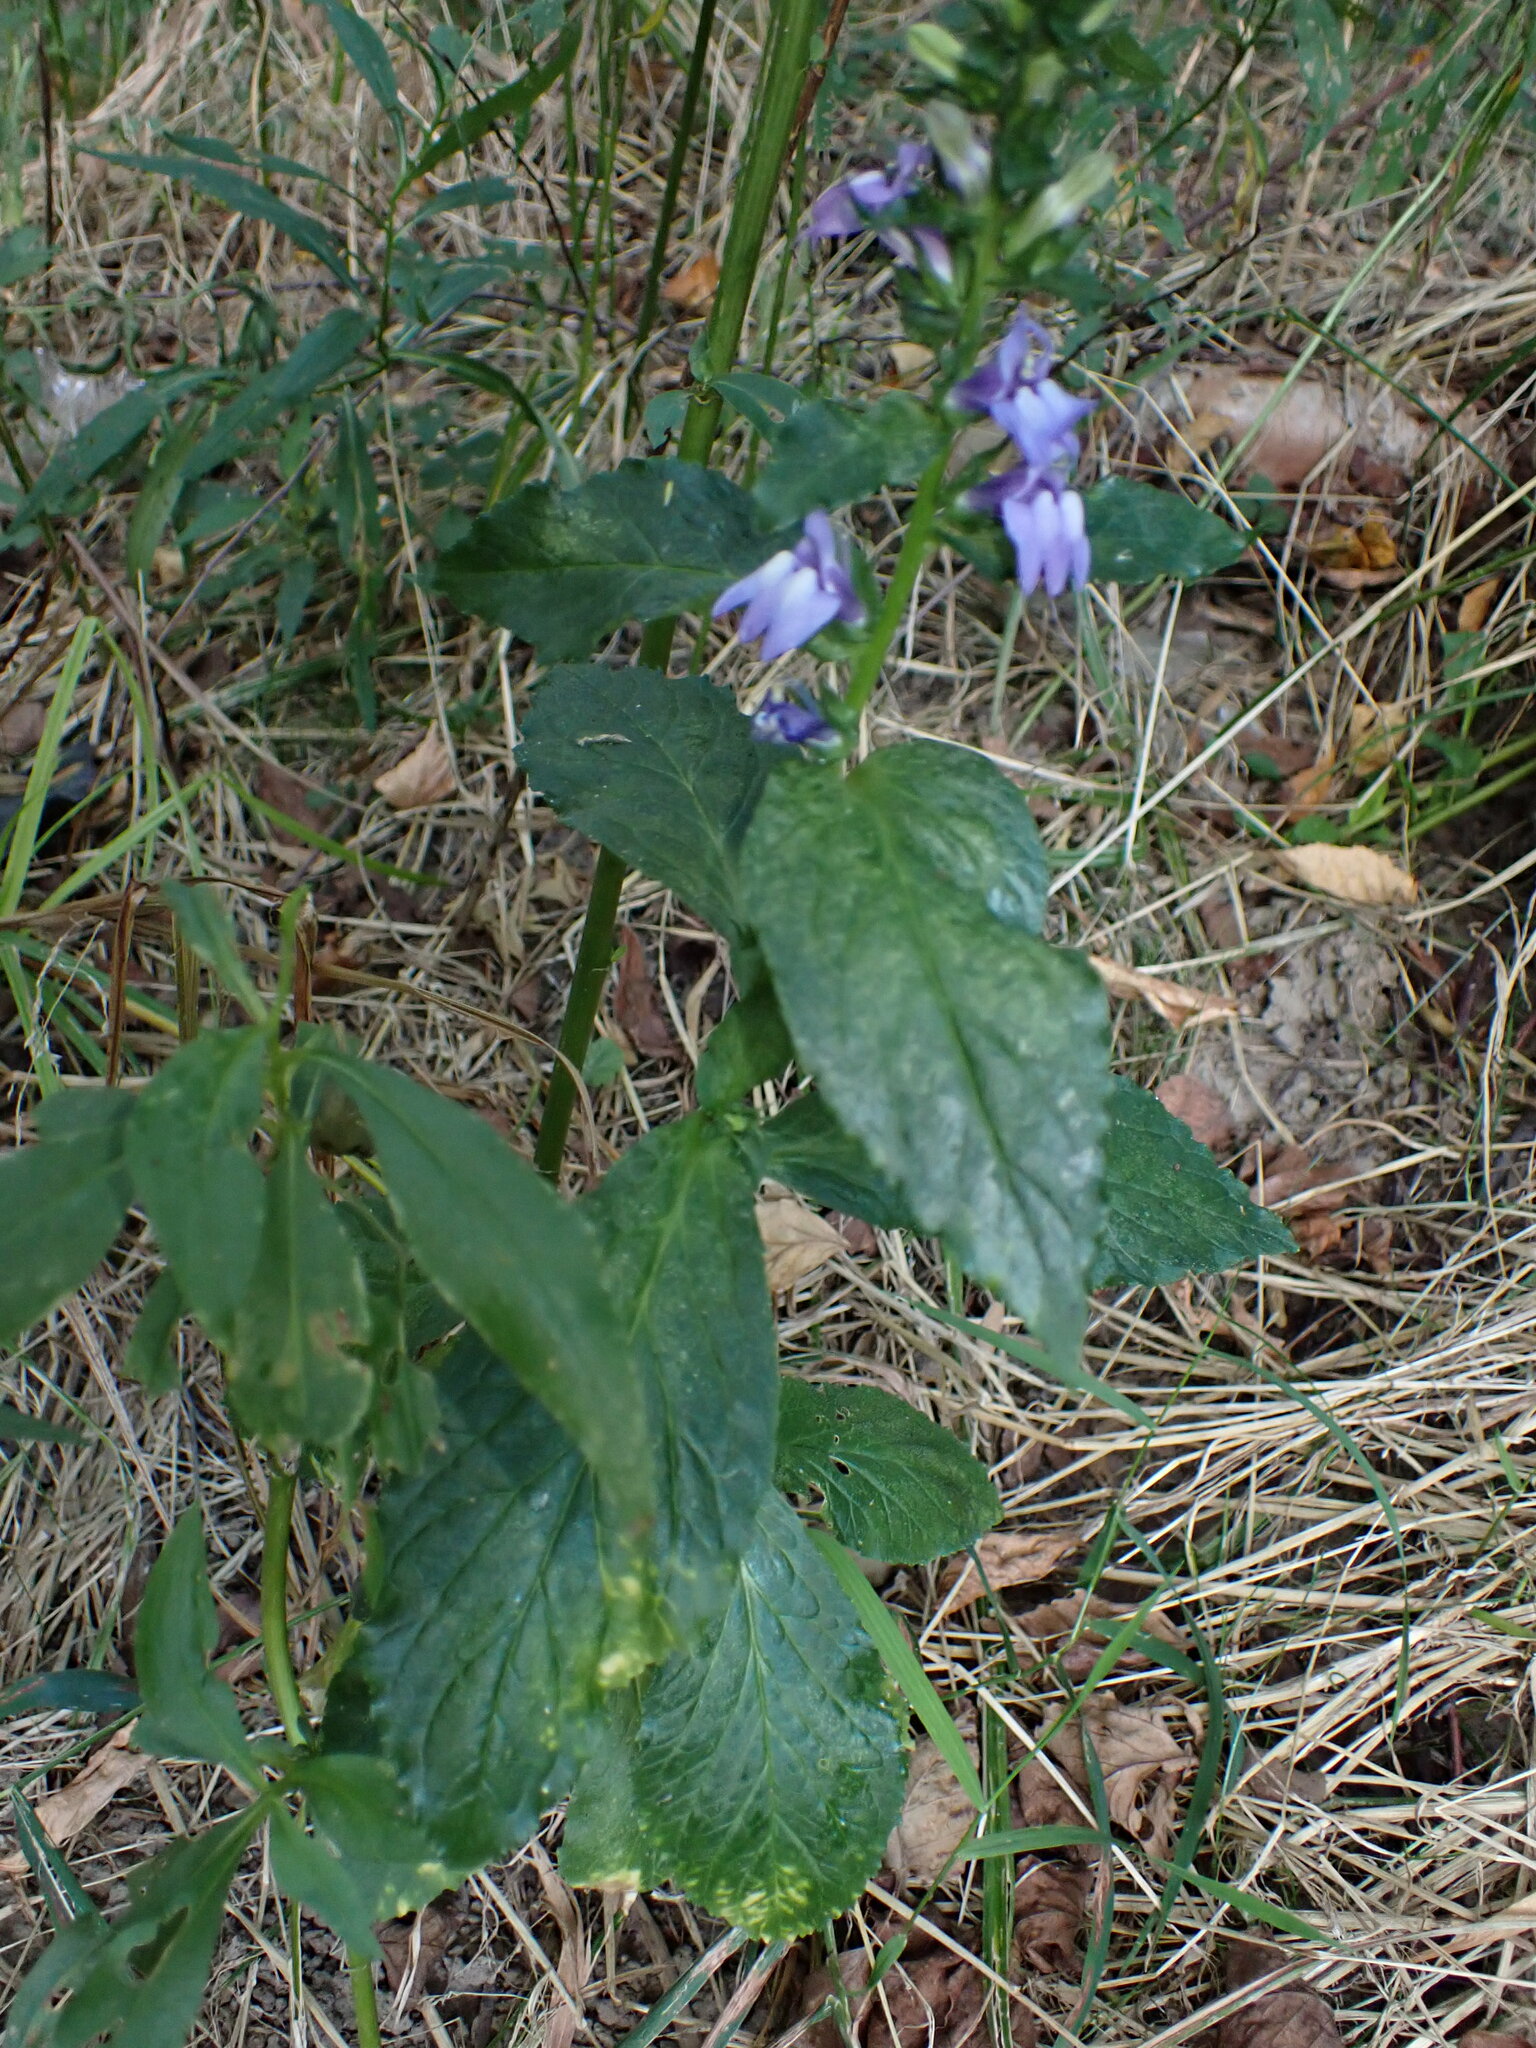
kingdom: Plantae
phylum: Tracheophyta
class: Magnoliopsida
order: Asterales
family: Campanulaceae
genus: Lobelia
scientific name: Lobelia siphilitica
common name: Great lobelia
